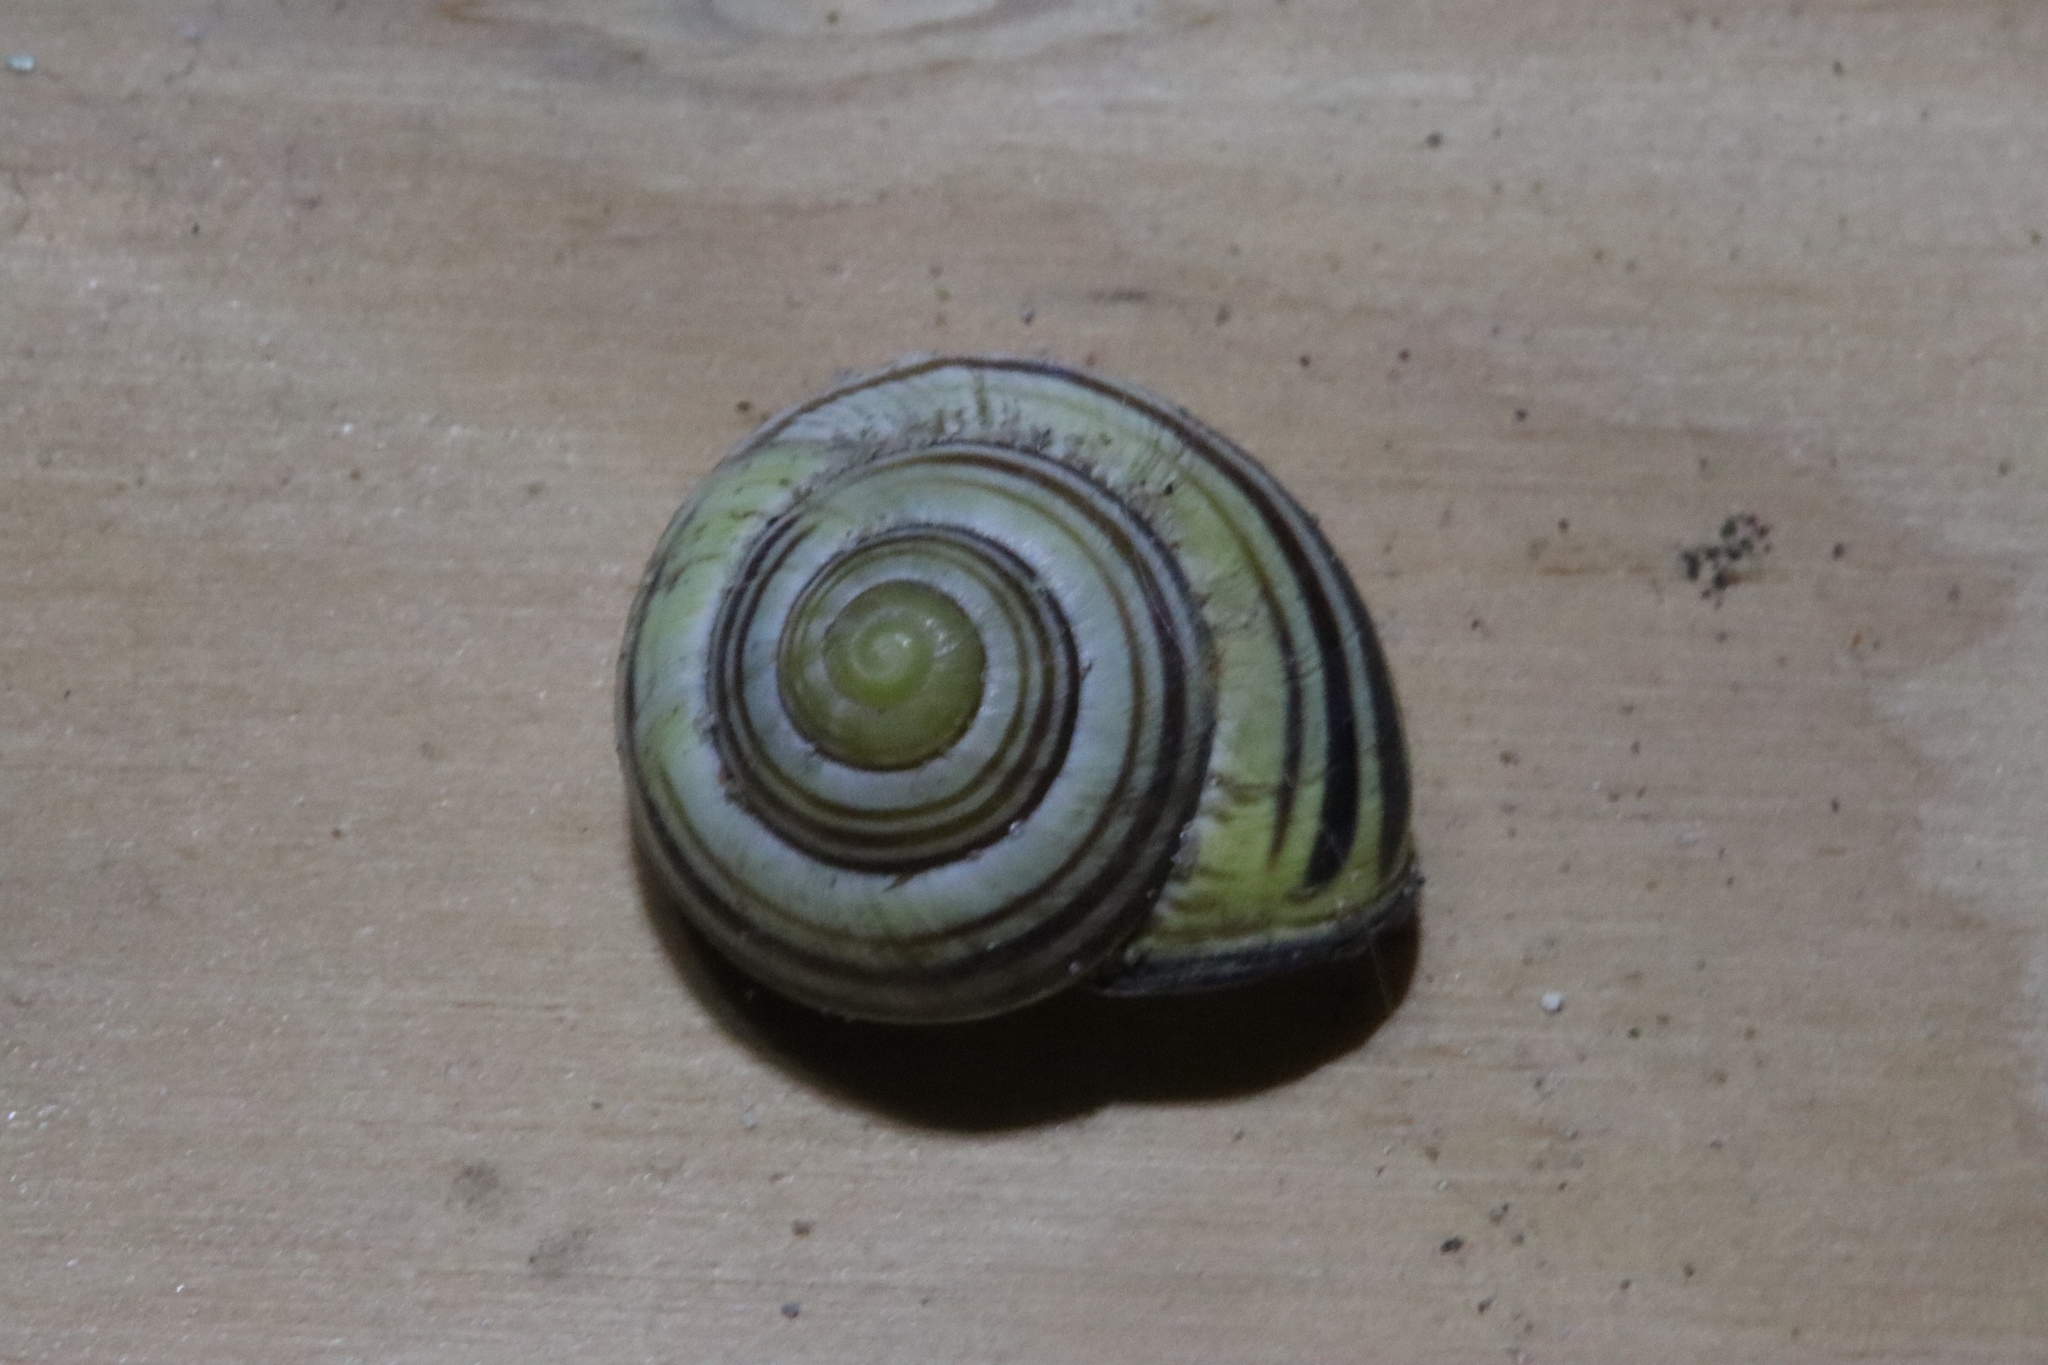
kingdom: Animalia
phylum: Mollusca
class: Gastropoda
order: Stylommatophora
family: Helicidae
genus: Cepaea
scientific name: Cepaea nemoralis
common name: Grovesnail
